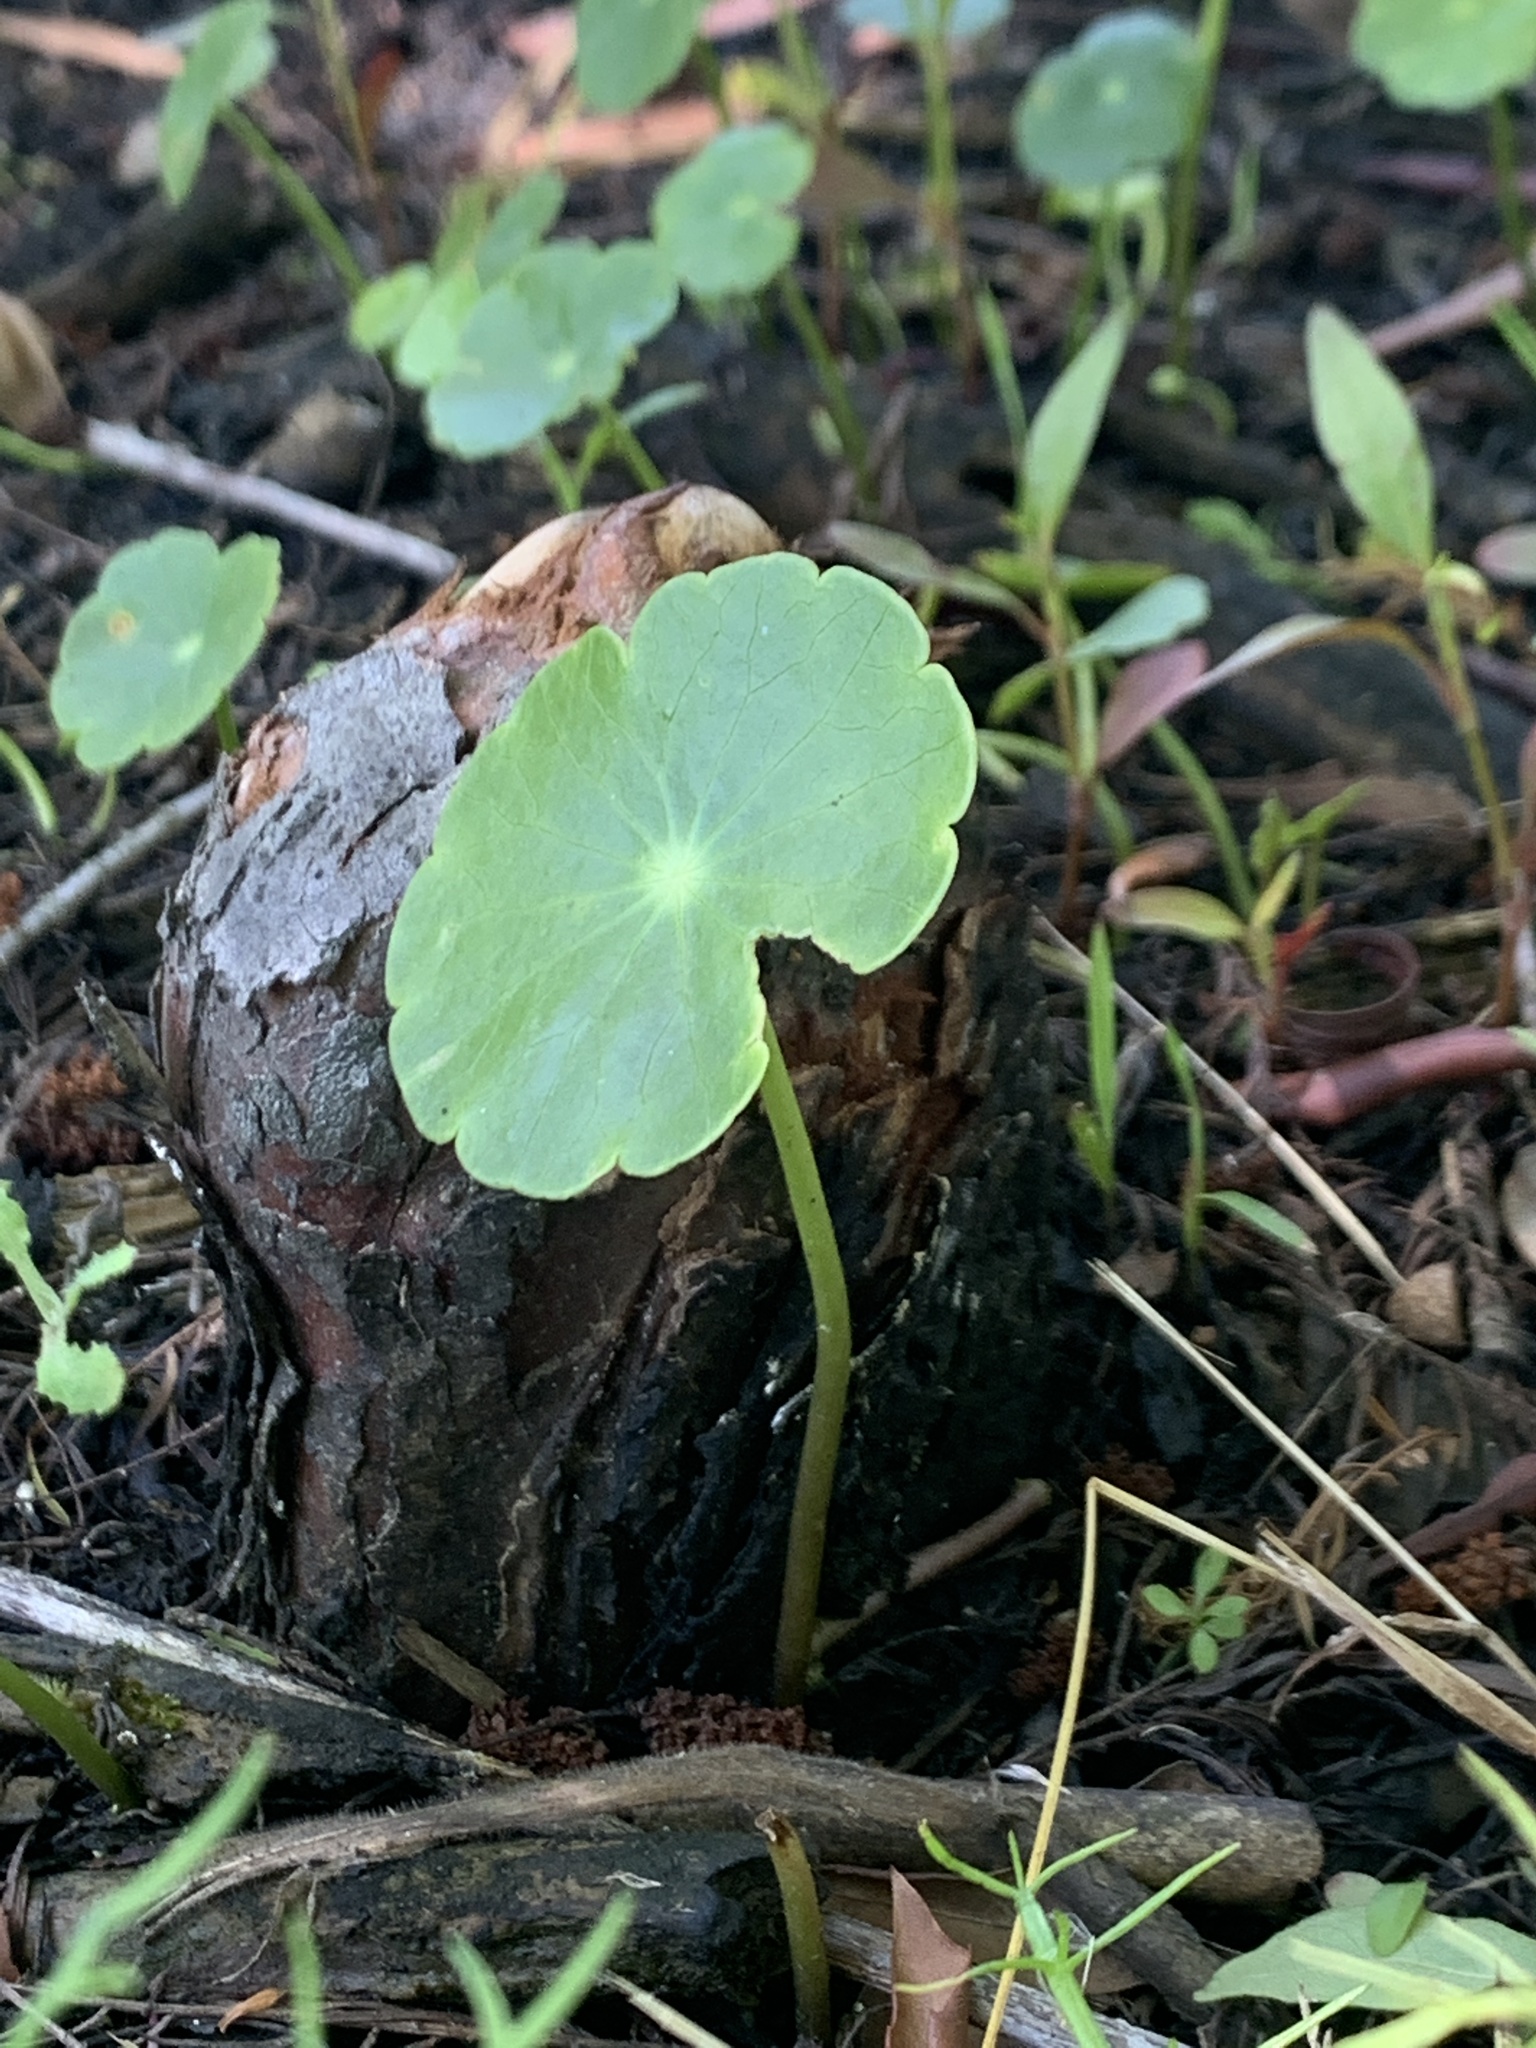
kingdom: Plantae
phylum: Tracheophyta
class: Magnoliopsida
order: Apiales
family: Araliaceae
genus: Hydrocotyle
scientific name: Hydrocotyle umbellata
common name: Water pennywort
